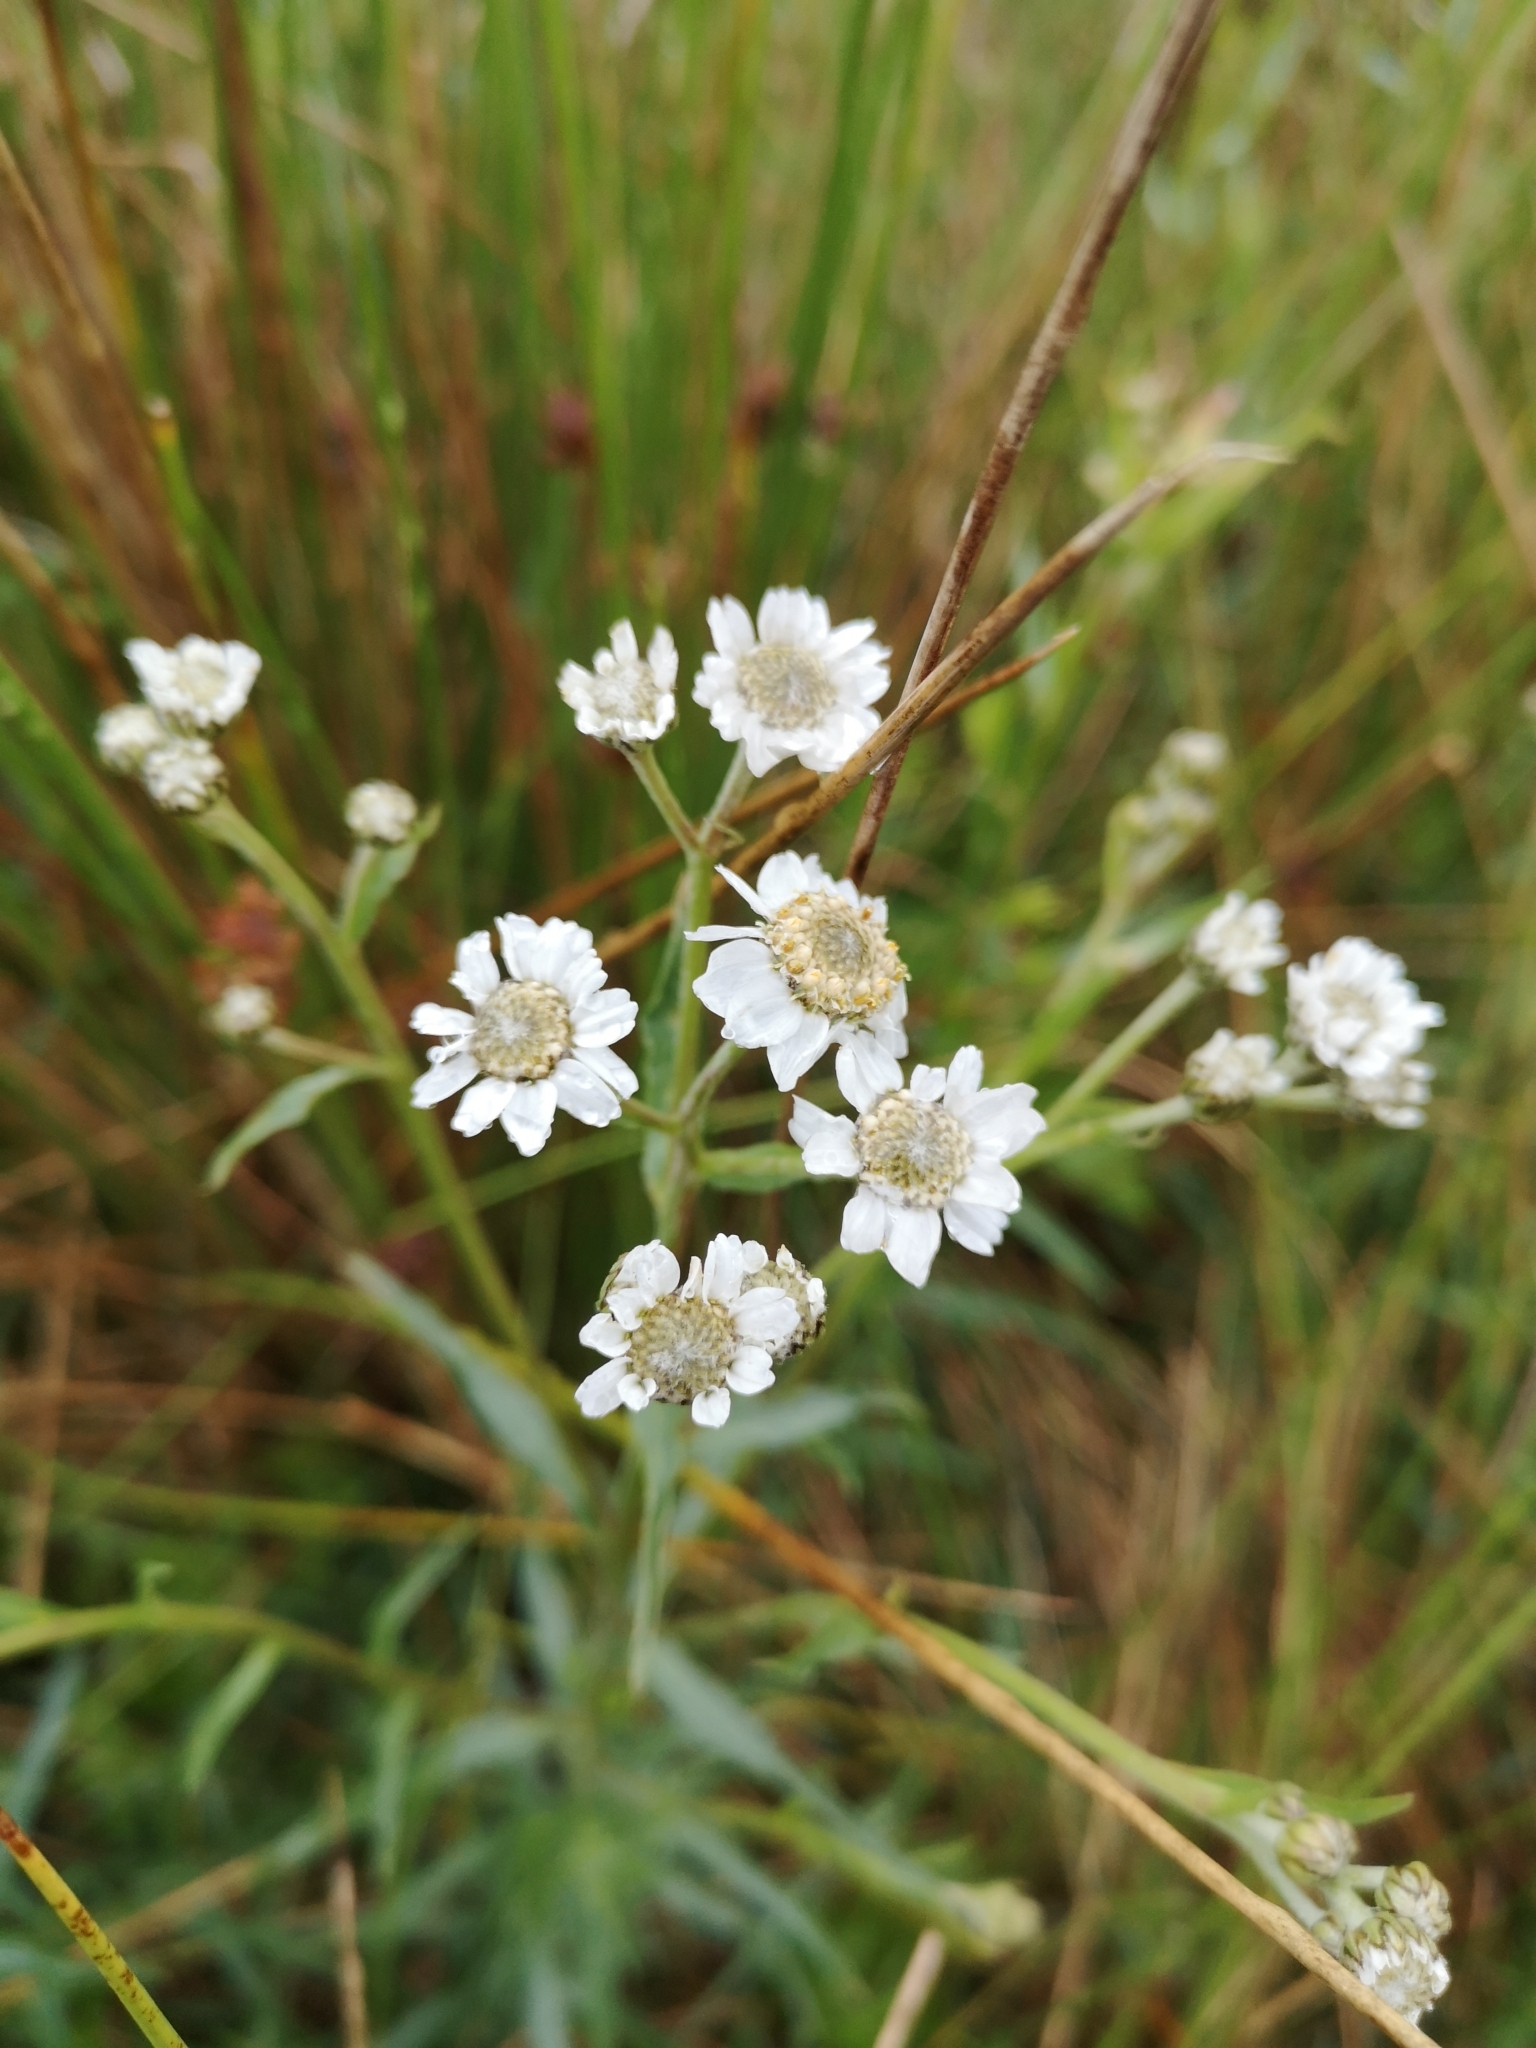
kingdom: Plantae
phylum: Tracheophyta
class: Magnoliopsida
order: Asterales
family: Asteraceae
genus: Achillea
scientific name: Achillea ptarmica
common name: Sneezeweed
